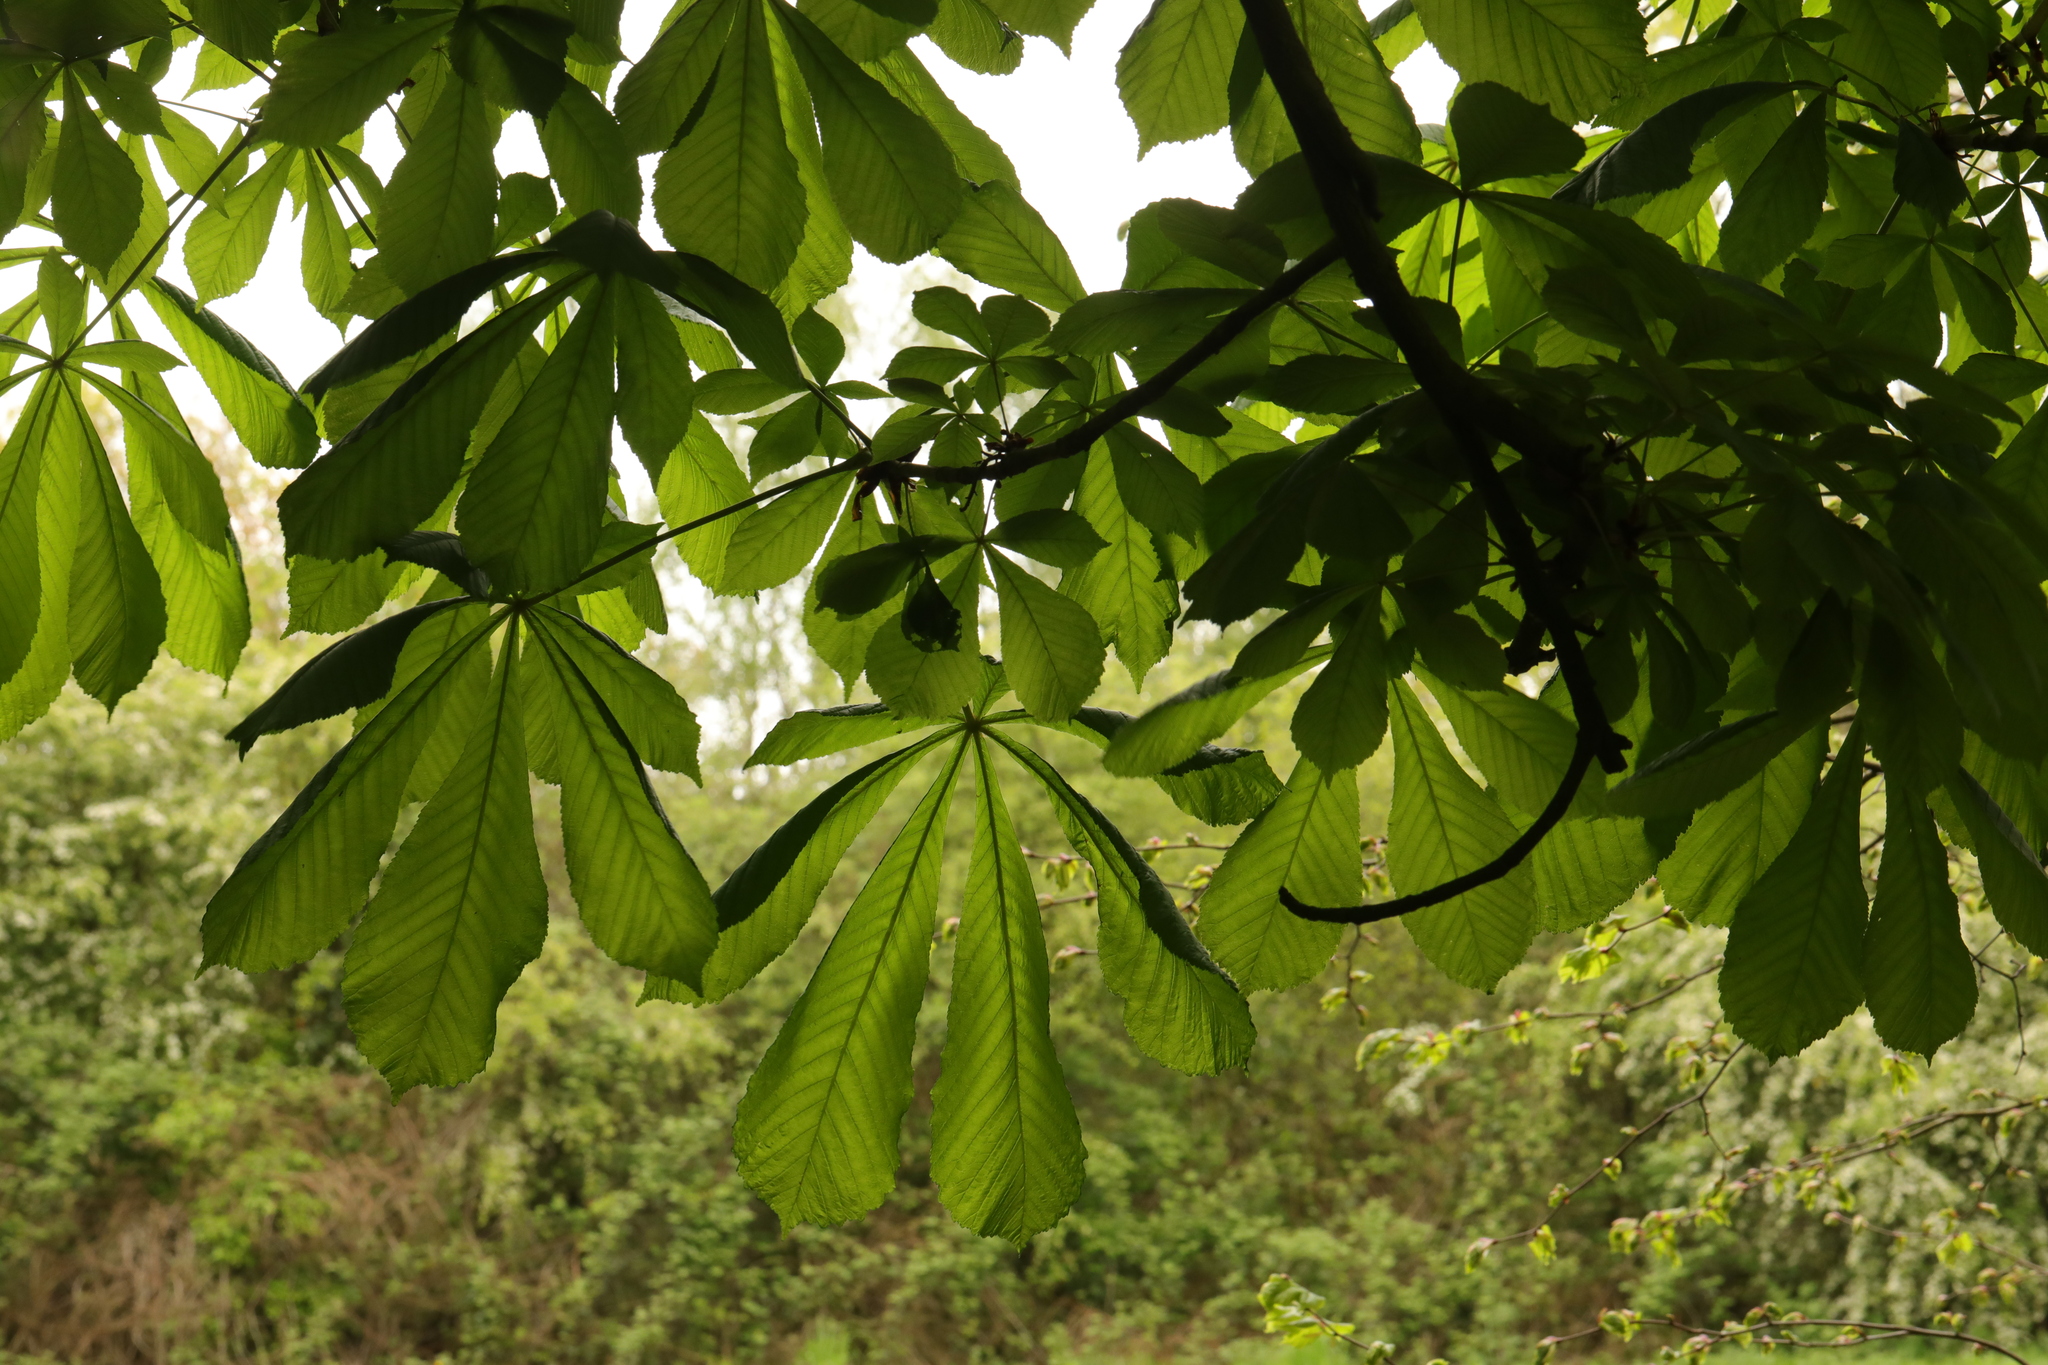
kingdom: Plantae
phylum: Tracheophyta
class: Magnoliopsida
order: Sapindales
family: Sapindaceae
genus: Aesculus
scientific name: Aesculus hippocastanum
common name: Horse-chestnut
